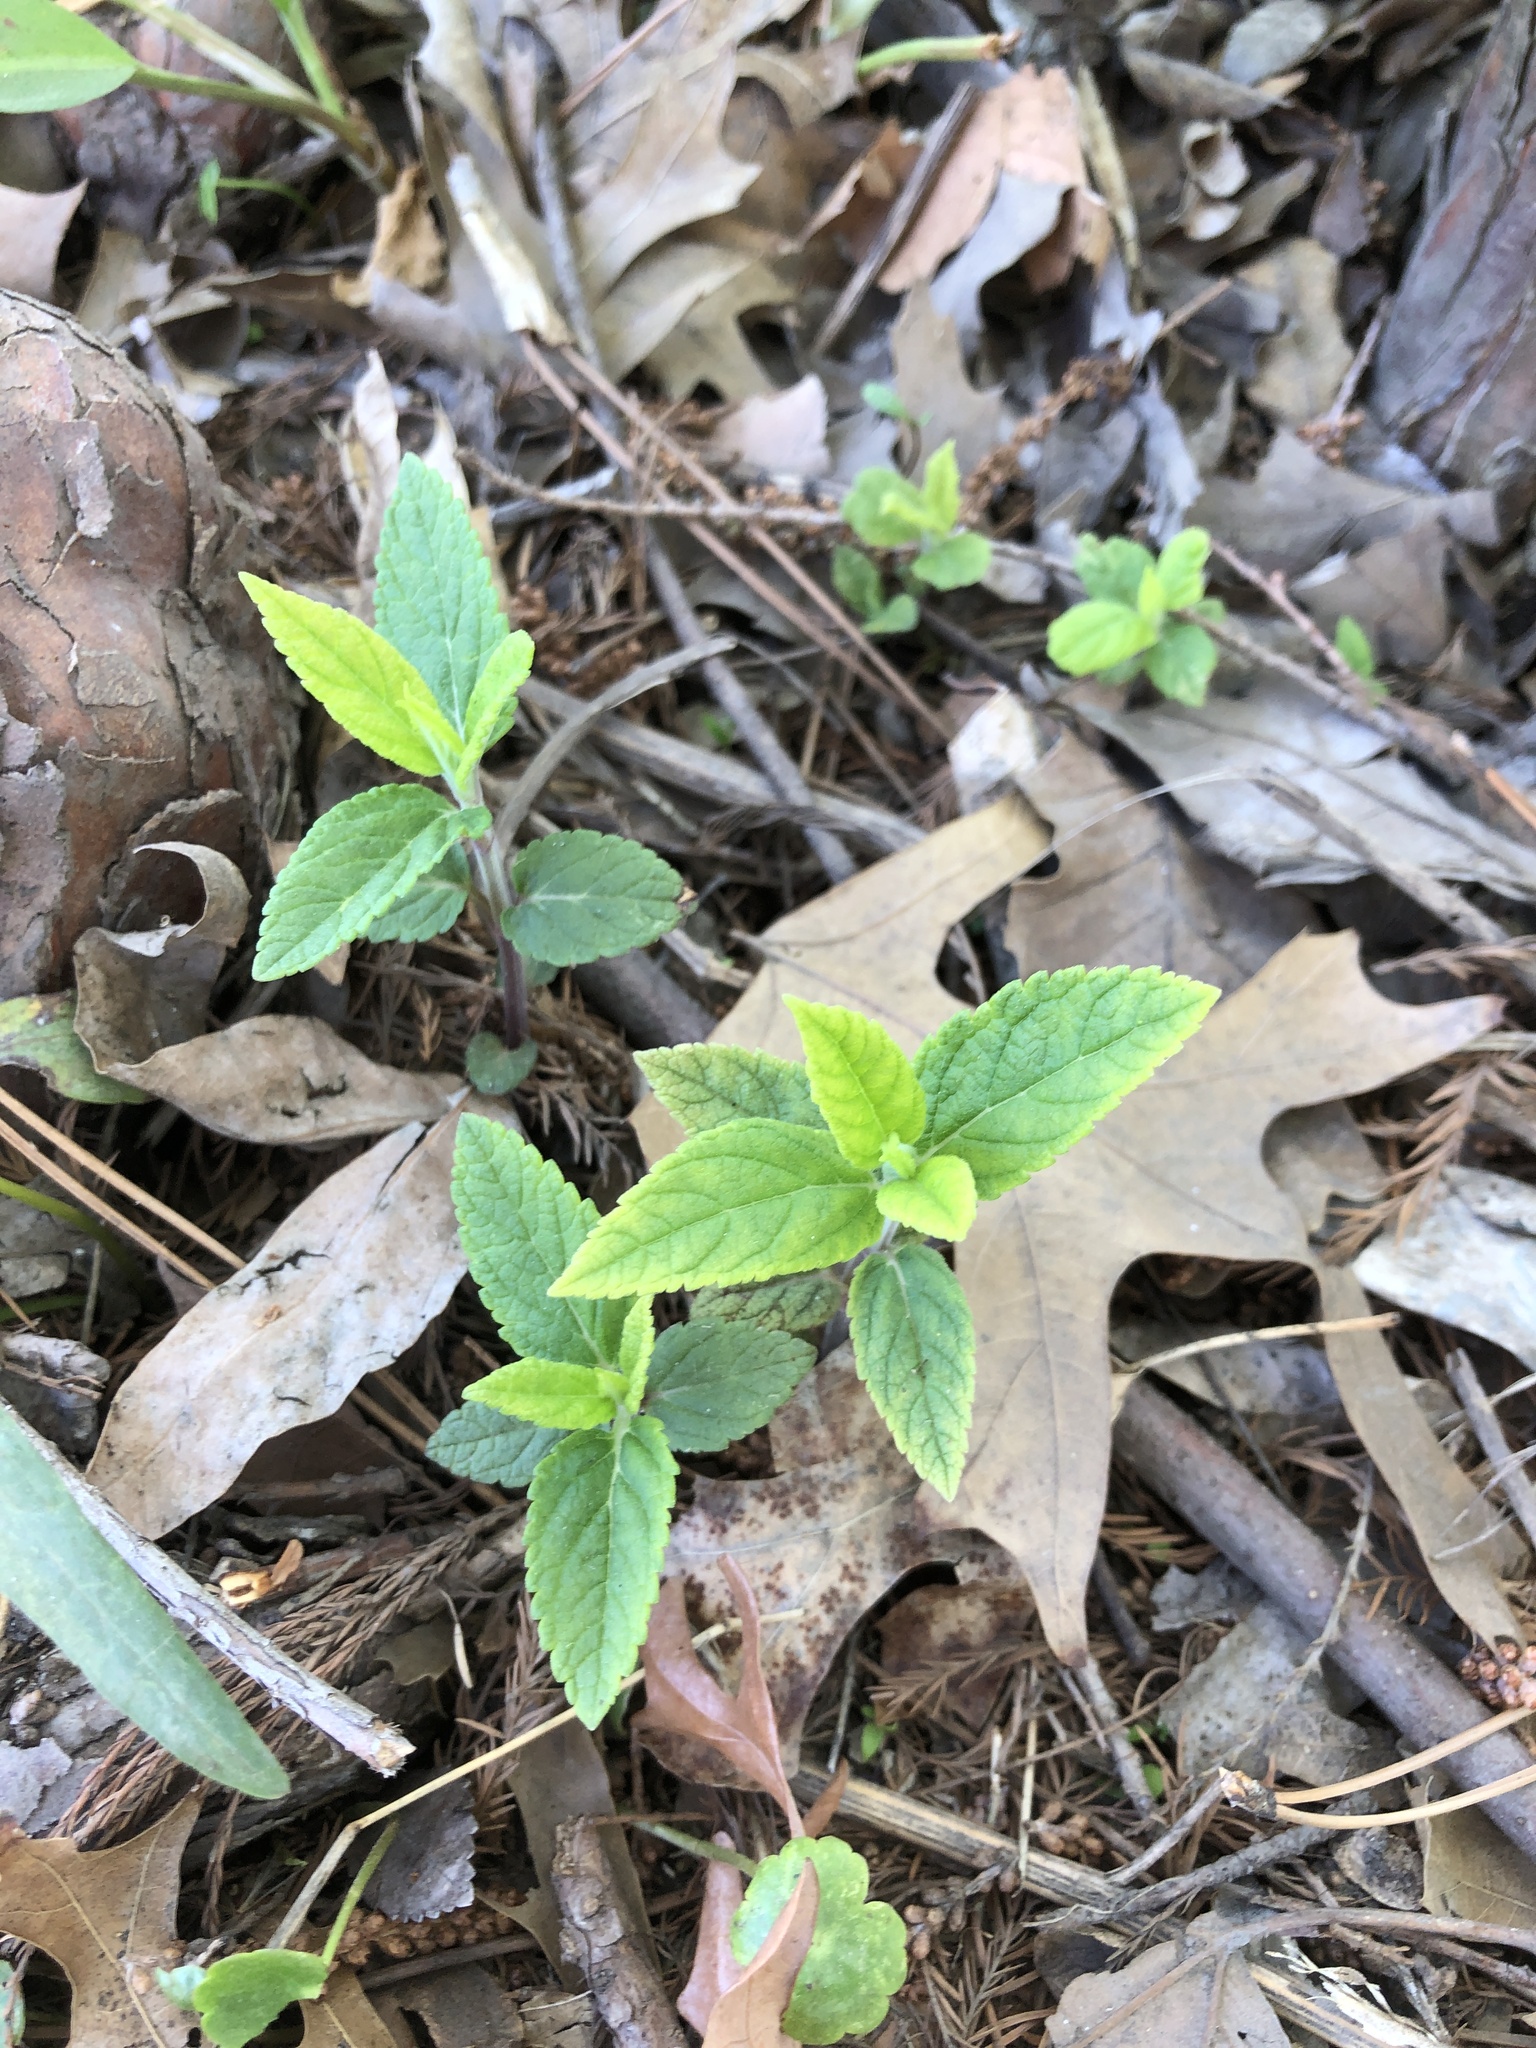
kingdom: Plantae
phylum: Tracheophyta
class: Magnoliopsida
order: Lamiales
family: Lamiaceae
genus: Teucrium
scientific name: Teucrium canadense
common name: American germander
